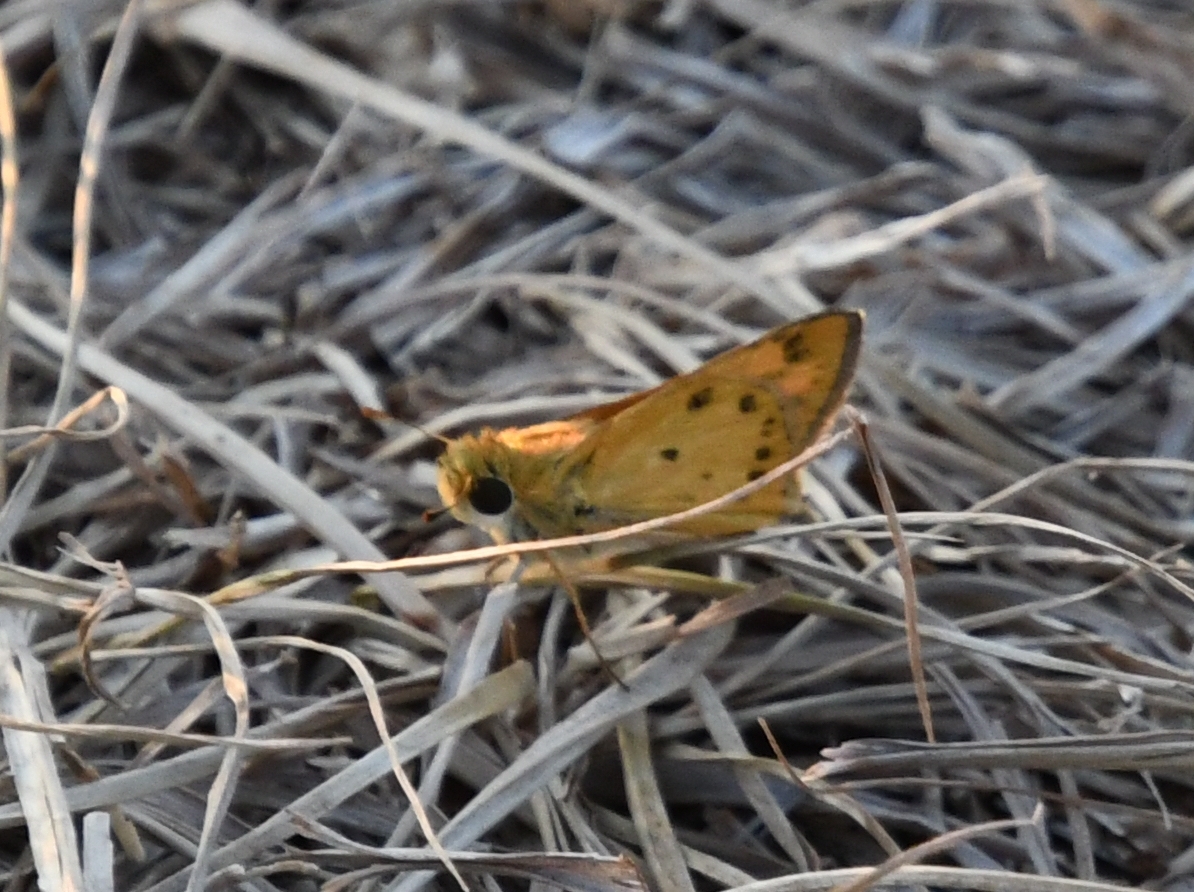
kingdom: Animalia
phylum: Arthropoda
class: Insecta
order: Lepidoptera
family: Hesperiidae
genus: Hylephila
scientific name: Hylephila phyleus
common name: Fiery skipper
